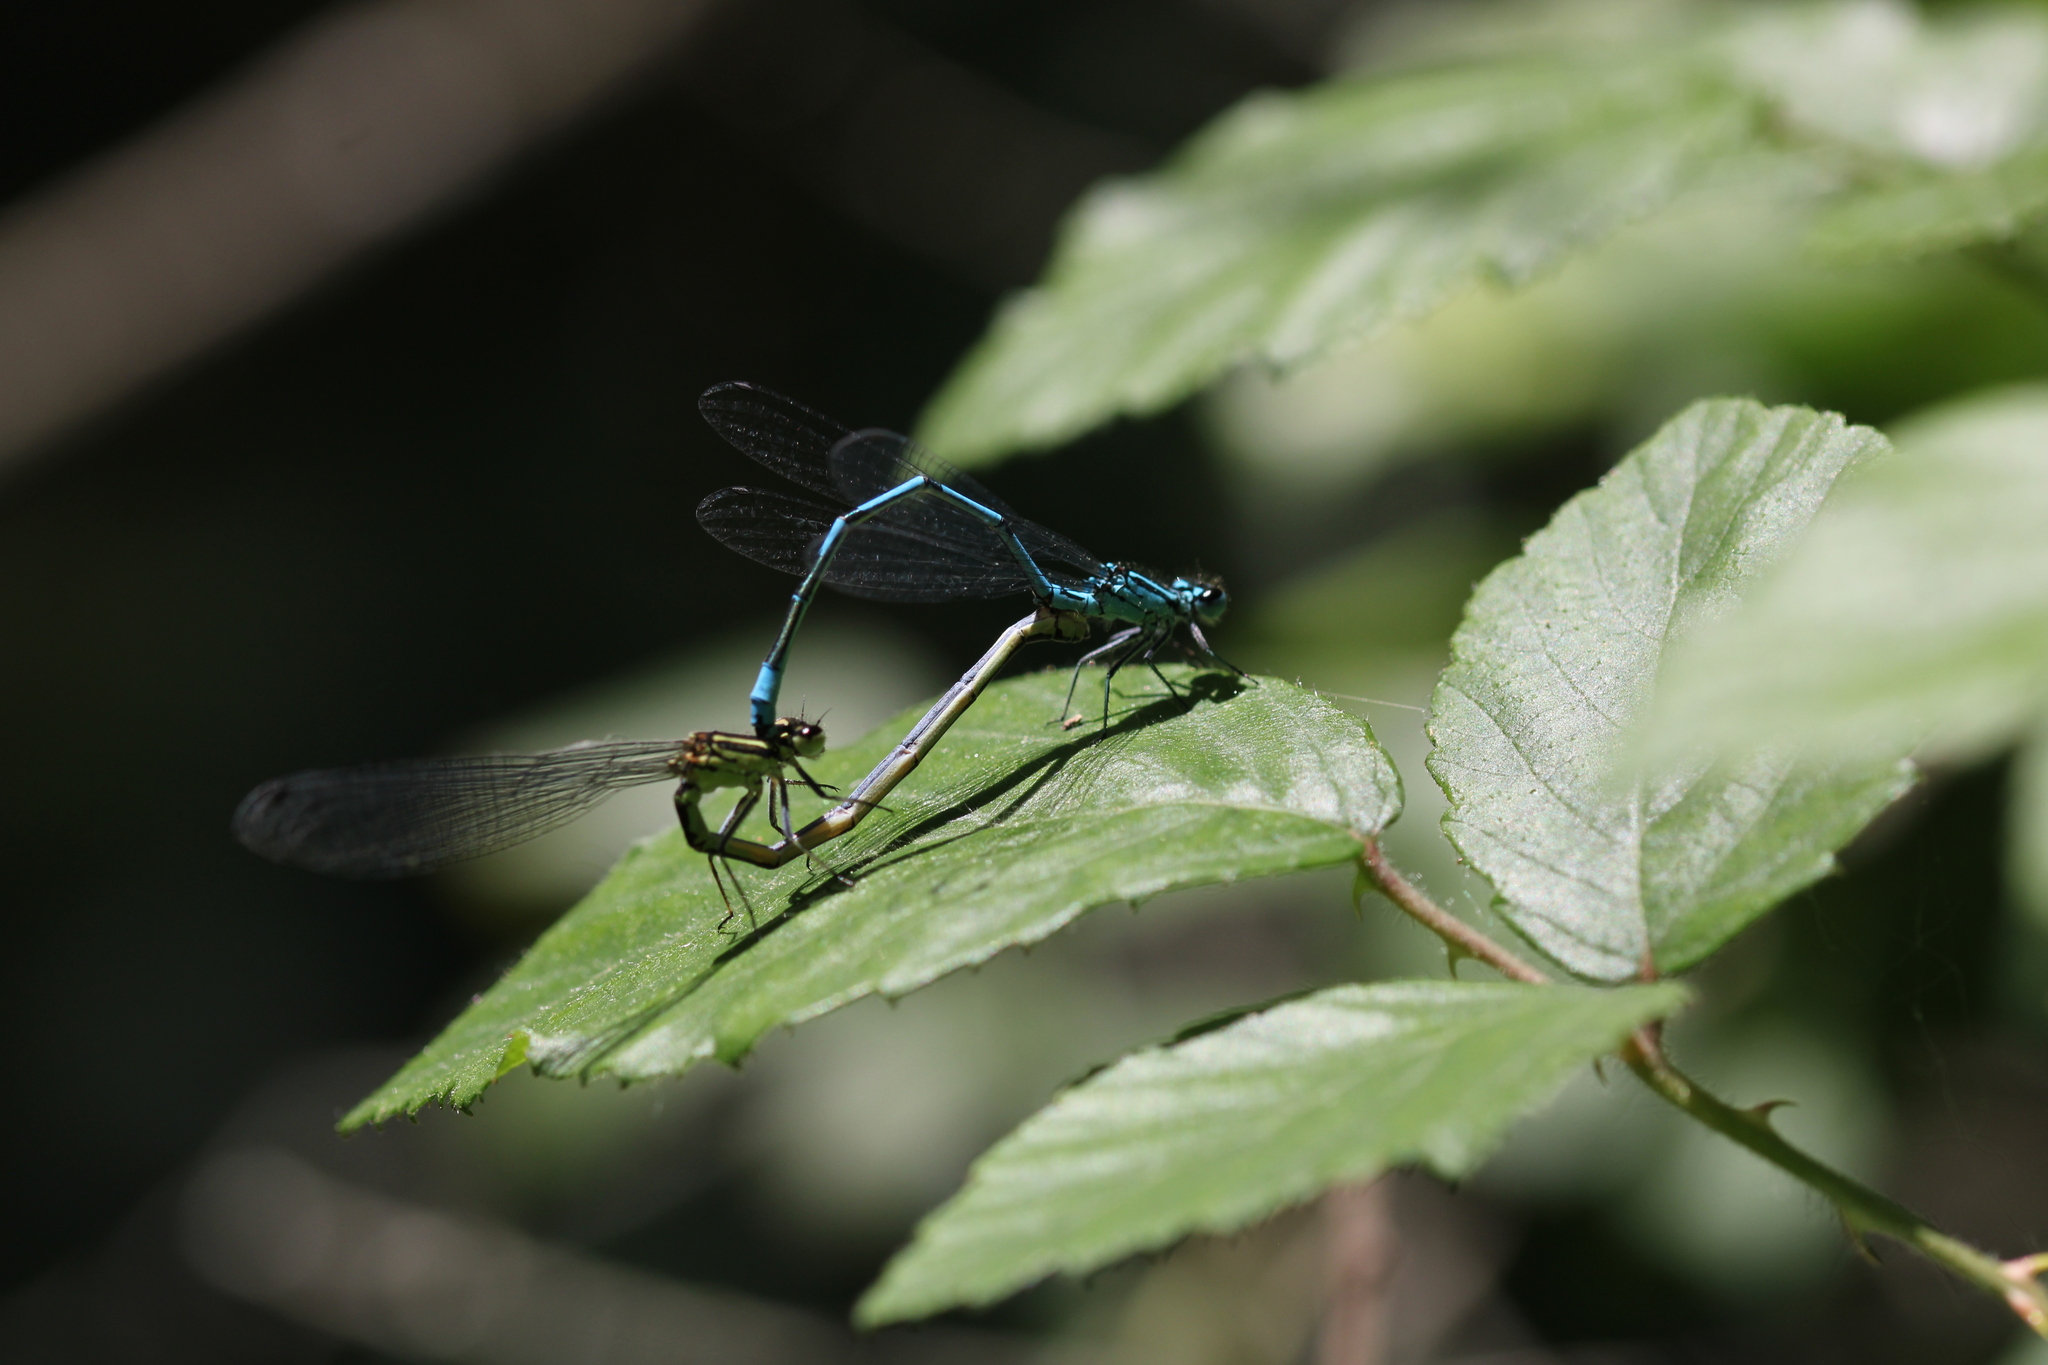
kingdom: Animalia
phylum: Arthropoda
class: Insecta
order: Odonata
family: Coenagrionidae
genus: Coenagrion
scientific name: Coenagrion puella
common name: Azure damselfly
